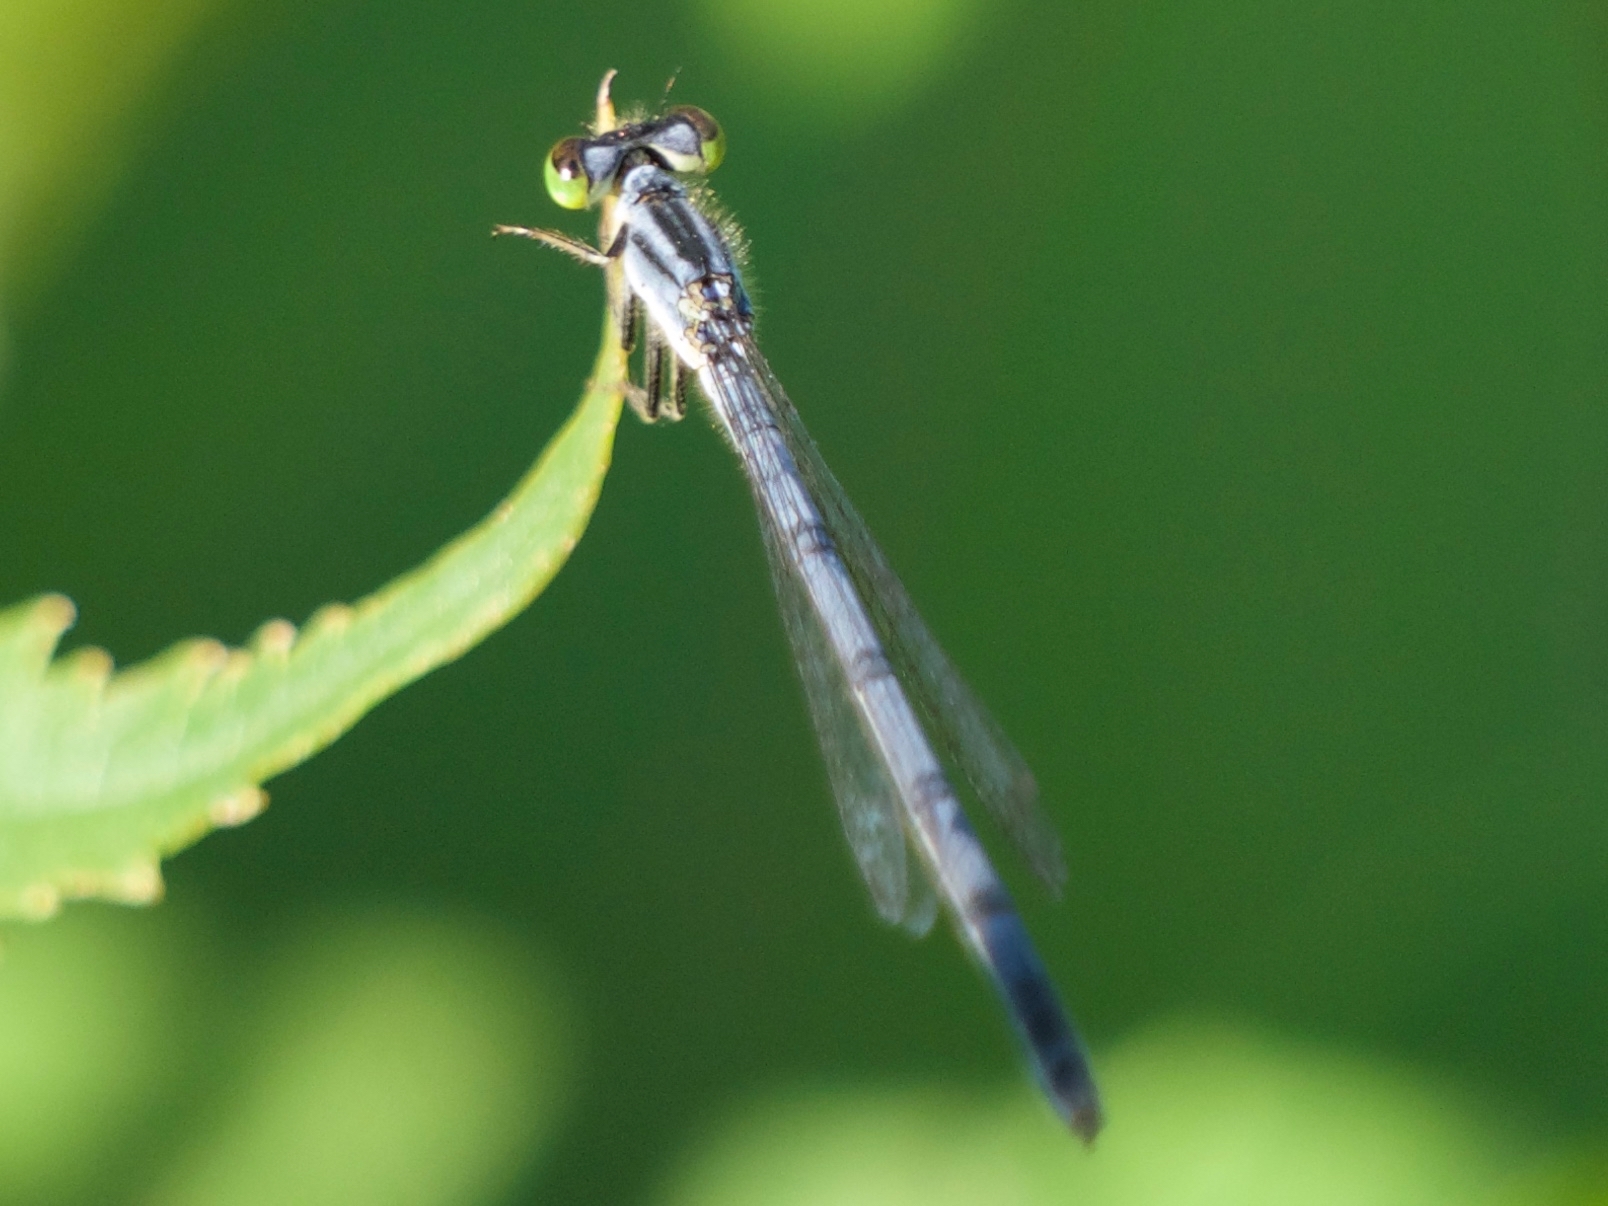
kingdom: Animalia
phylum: Arthropoda
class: Insecta
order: Odonata
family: Coenagrionidae
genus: Ischnura
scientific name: Ischnura verticalis
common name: Eastern forktail
